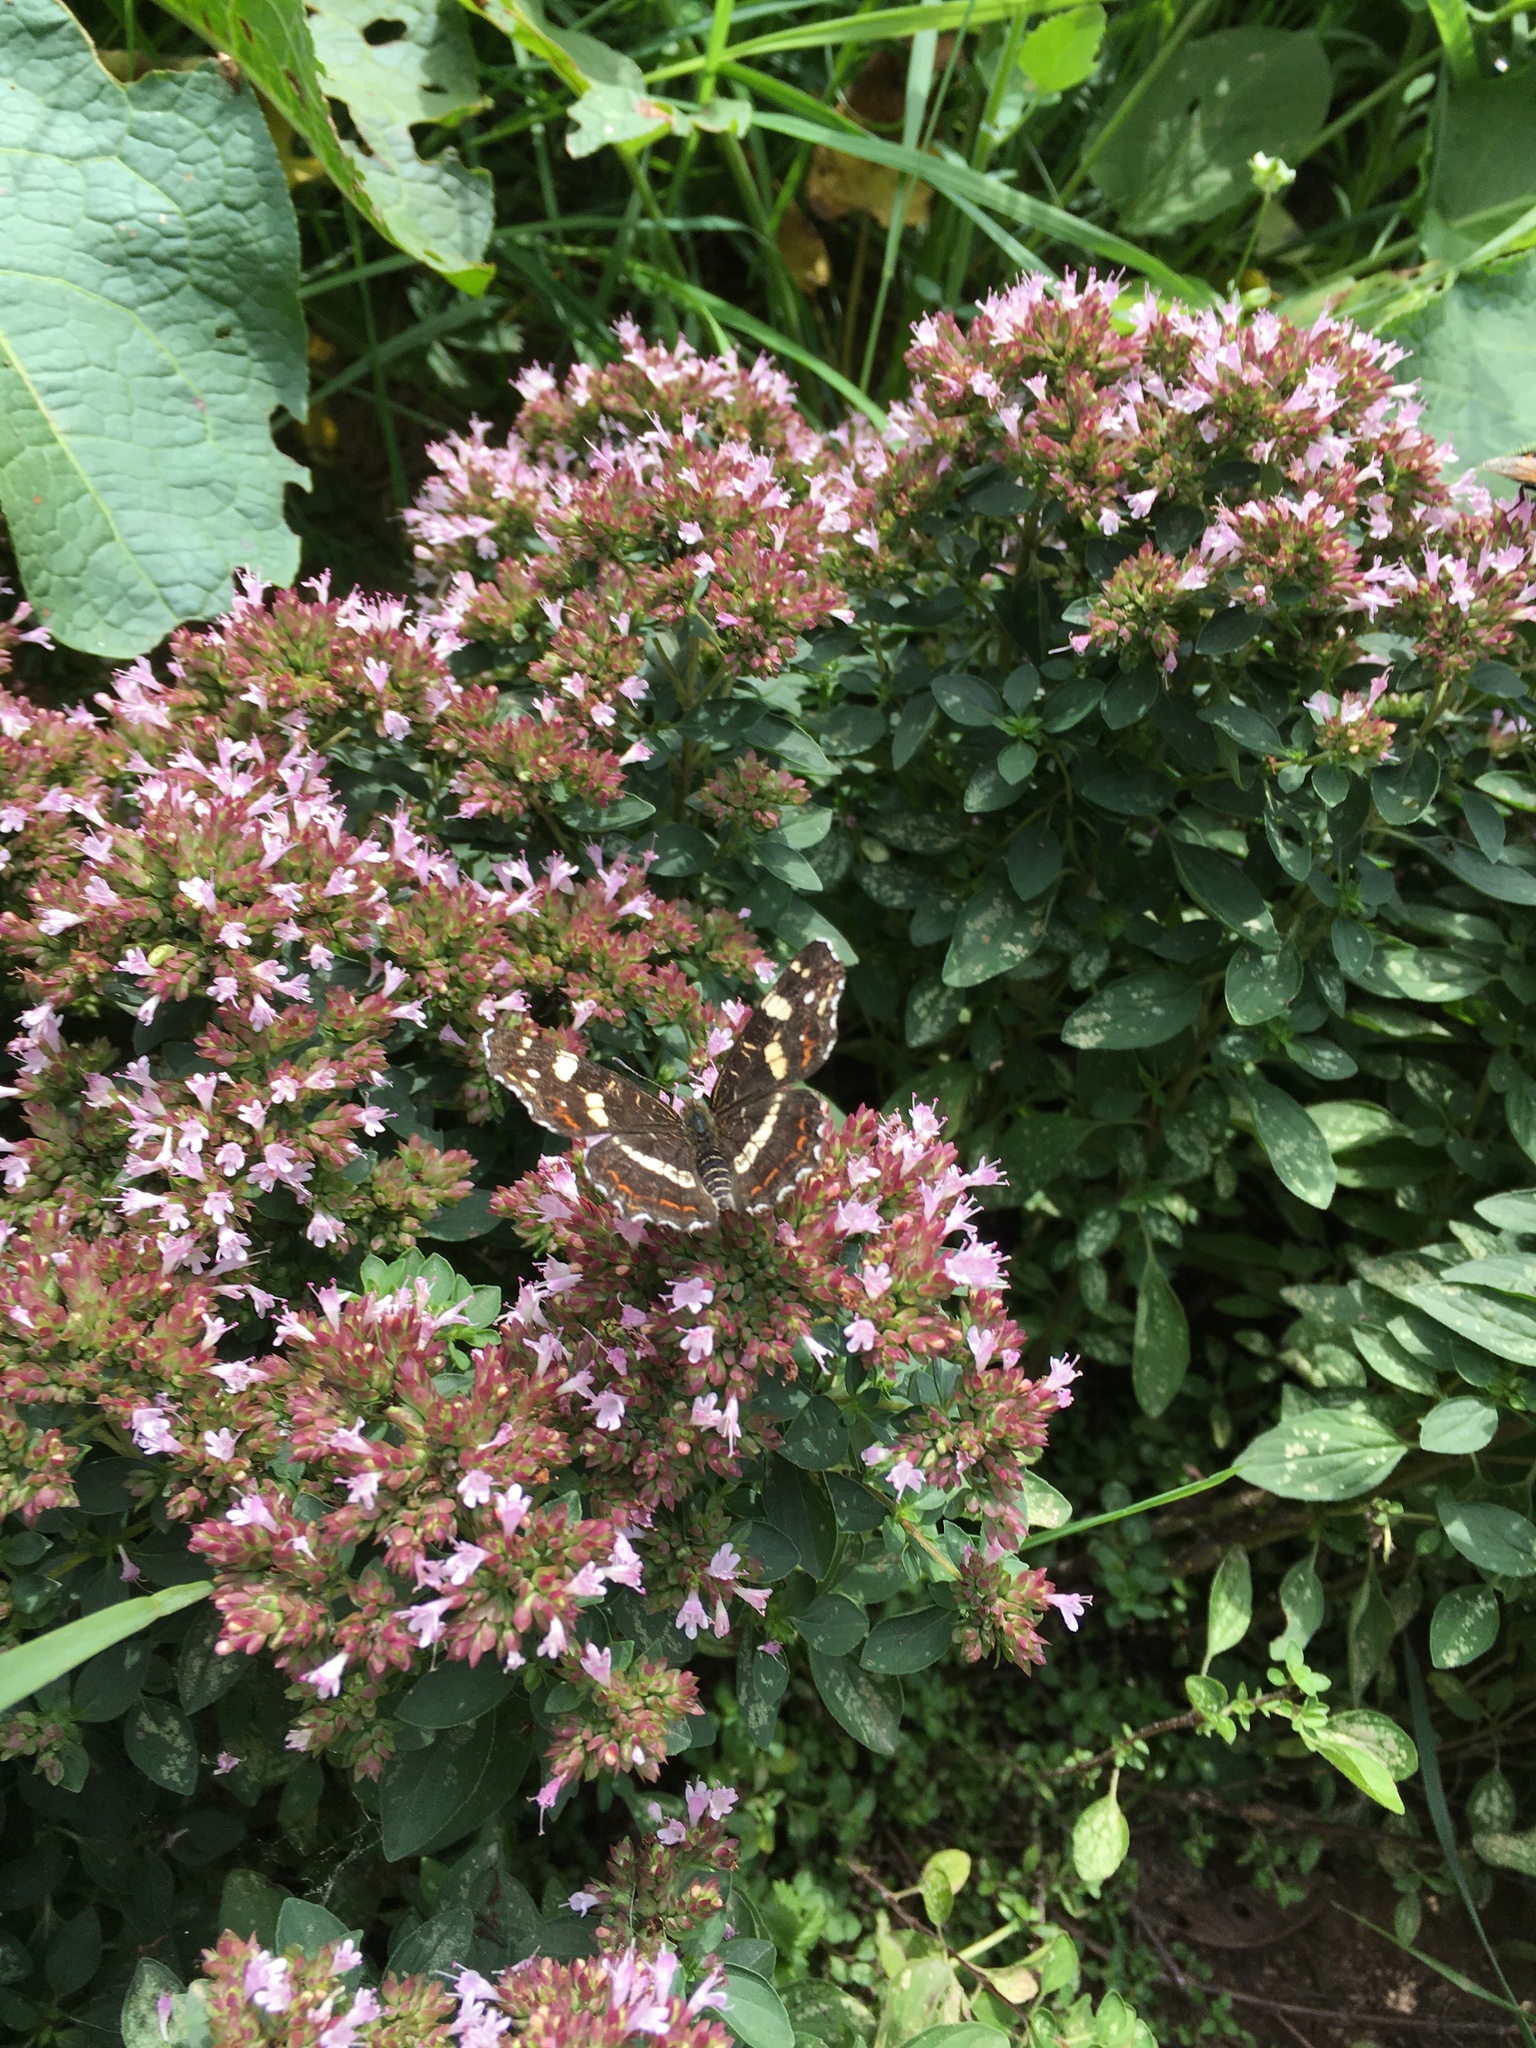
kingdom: Animalia
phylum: Arthropoda
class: Insecta
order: Lepidoptera
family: Nymphalidae
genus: Araschnia
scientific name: Araschnia levana
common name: Map butterfly
